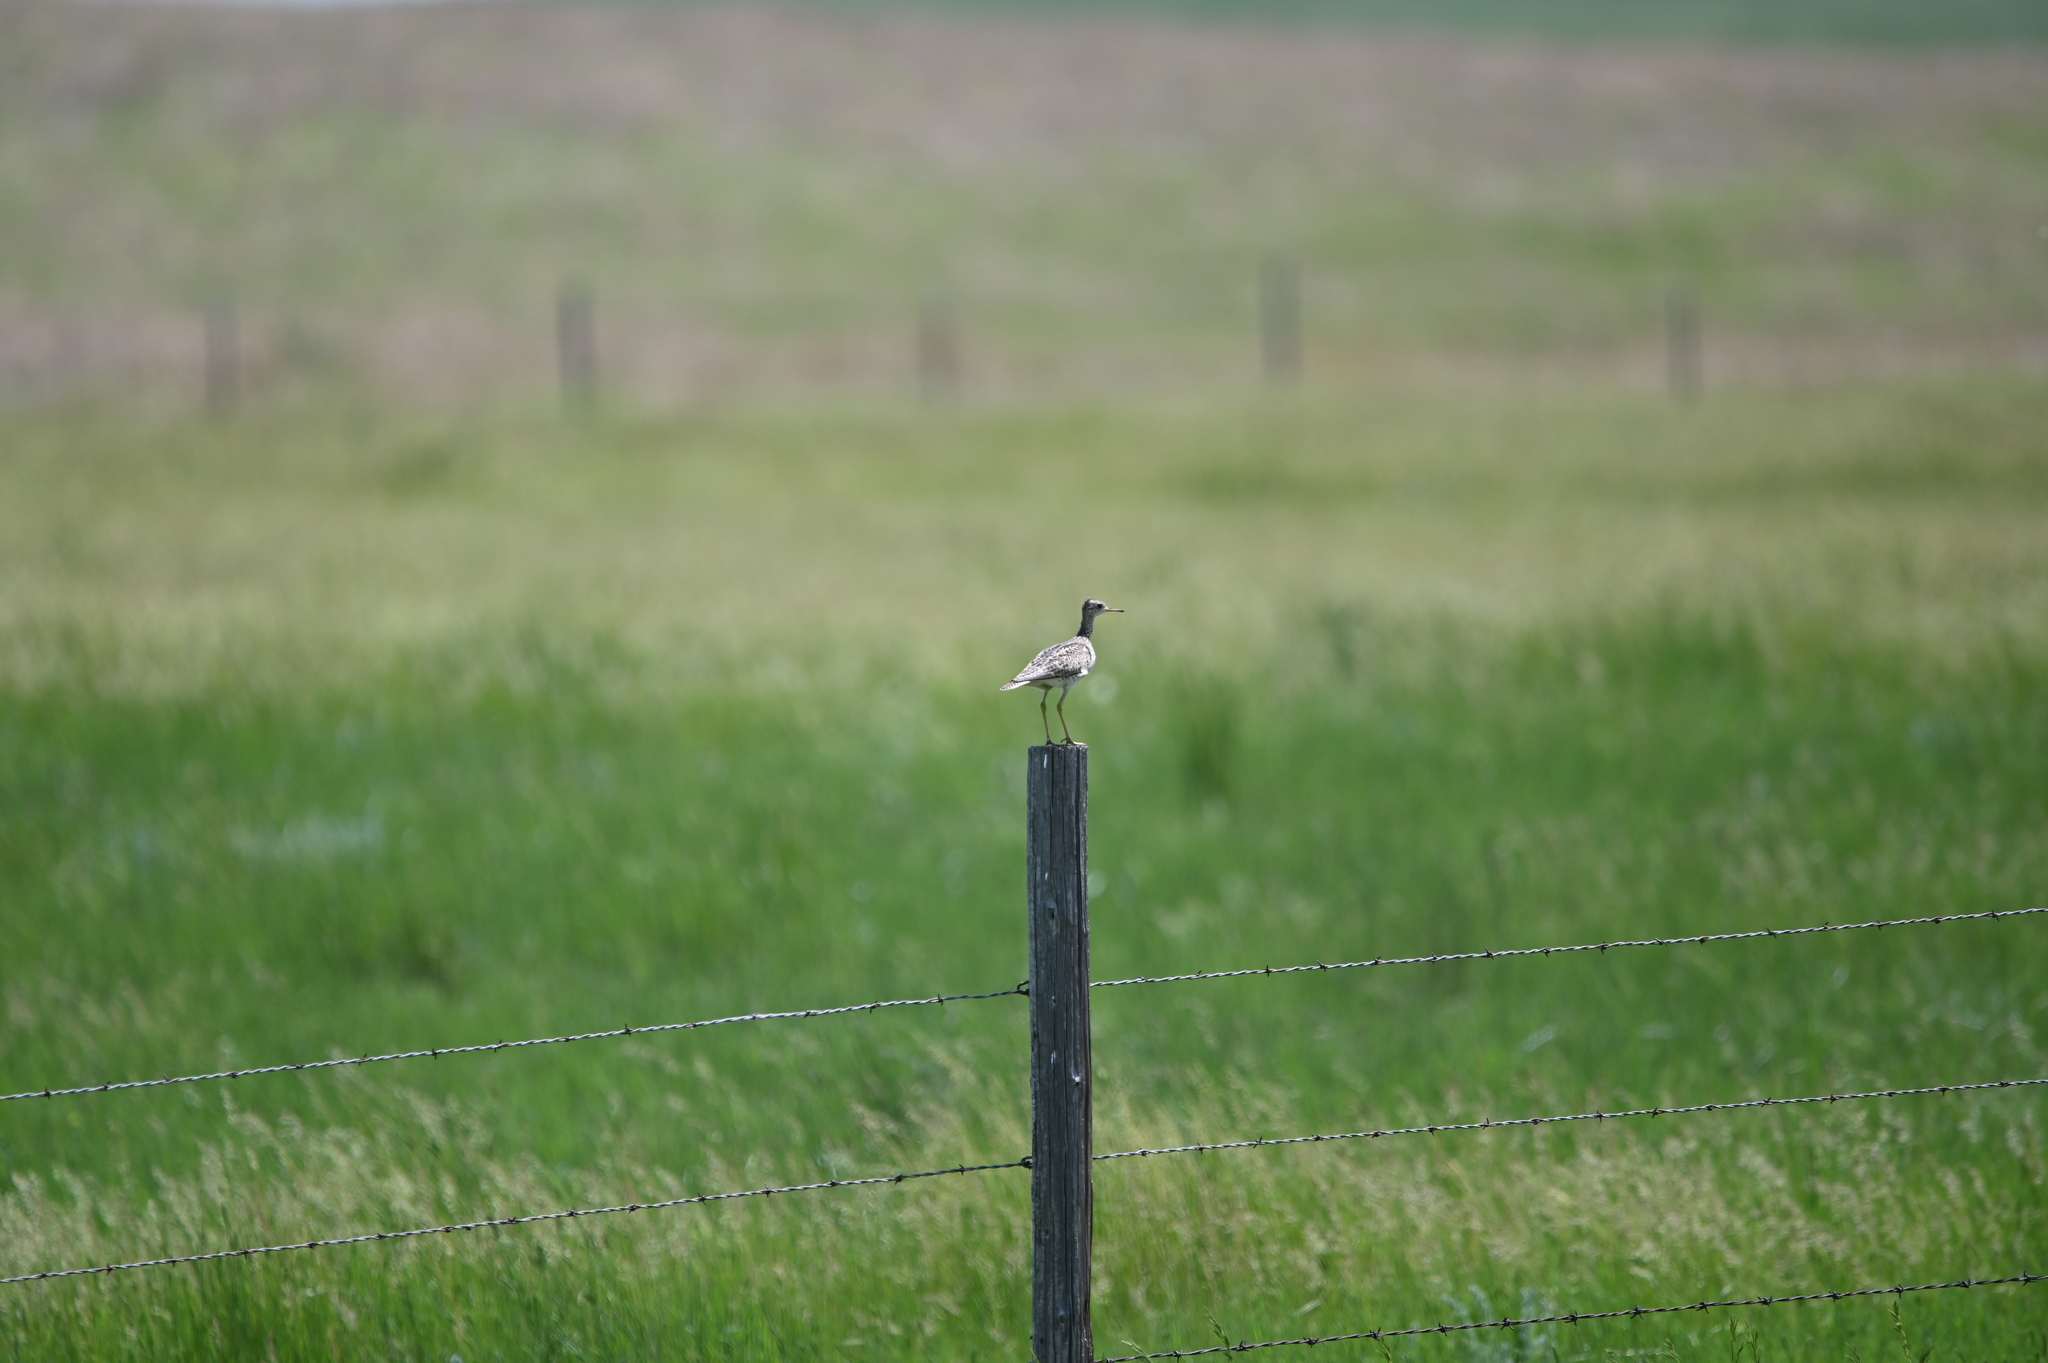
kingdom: Animalia
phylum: Chordata
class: Aves
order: Charadriiformes
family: Scolopacidae
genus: Bartramia
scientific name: Bartramia longicauda
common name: Upland sandpiper
